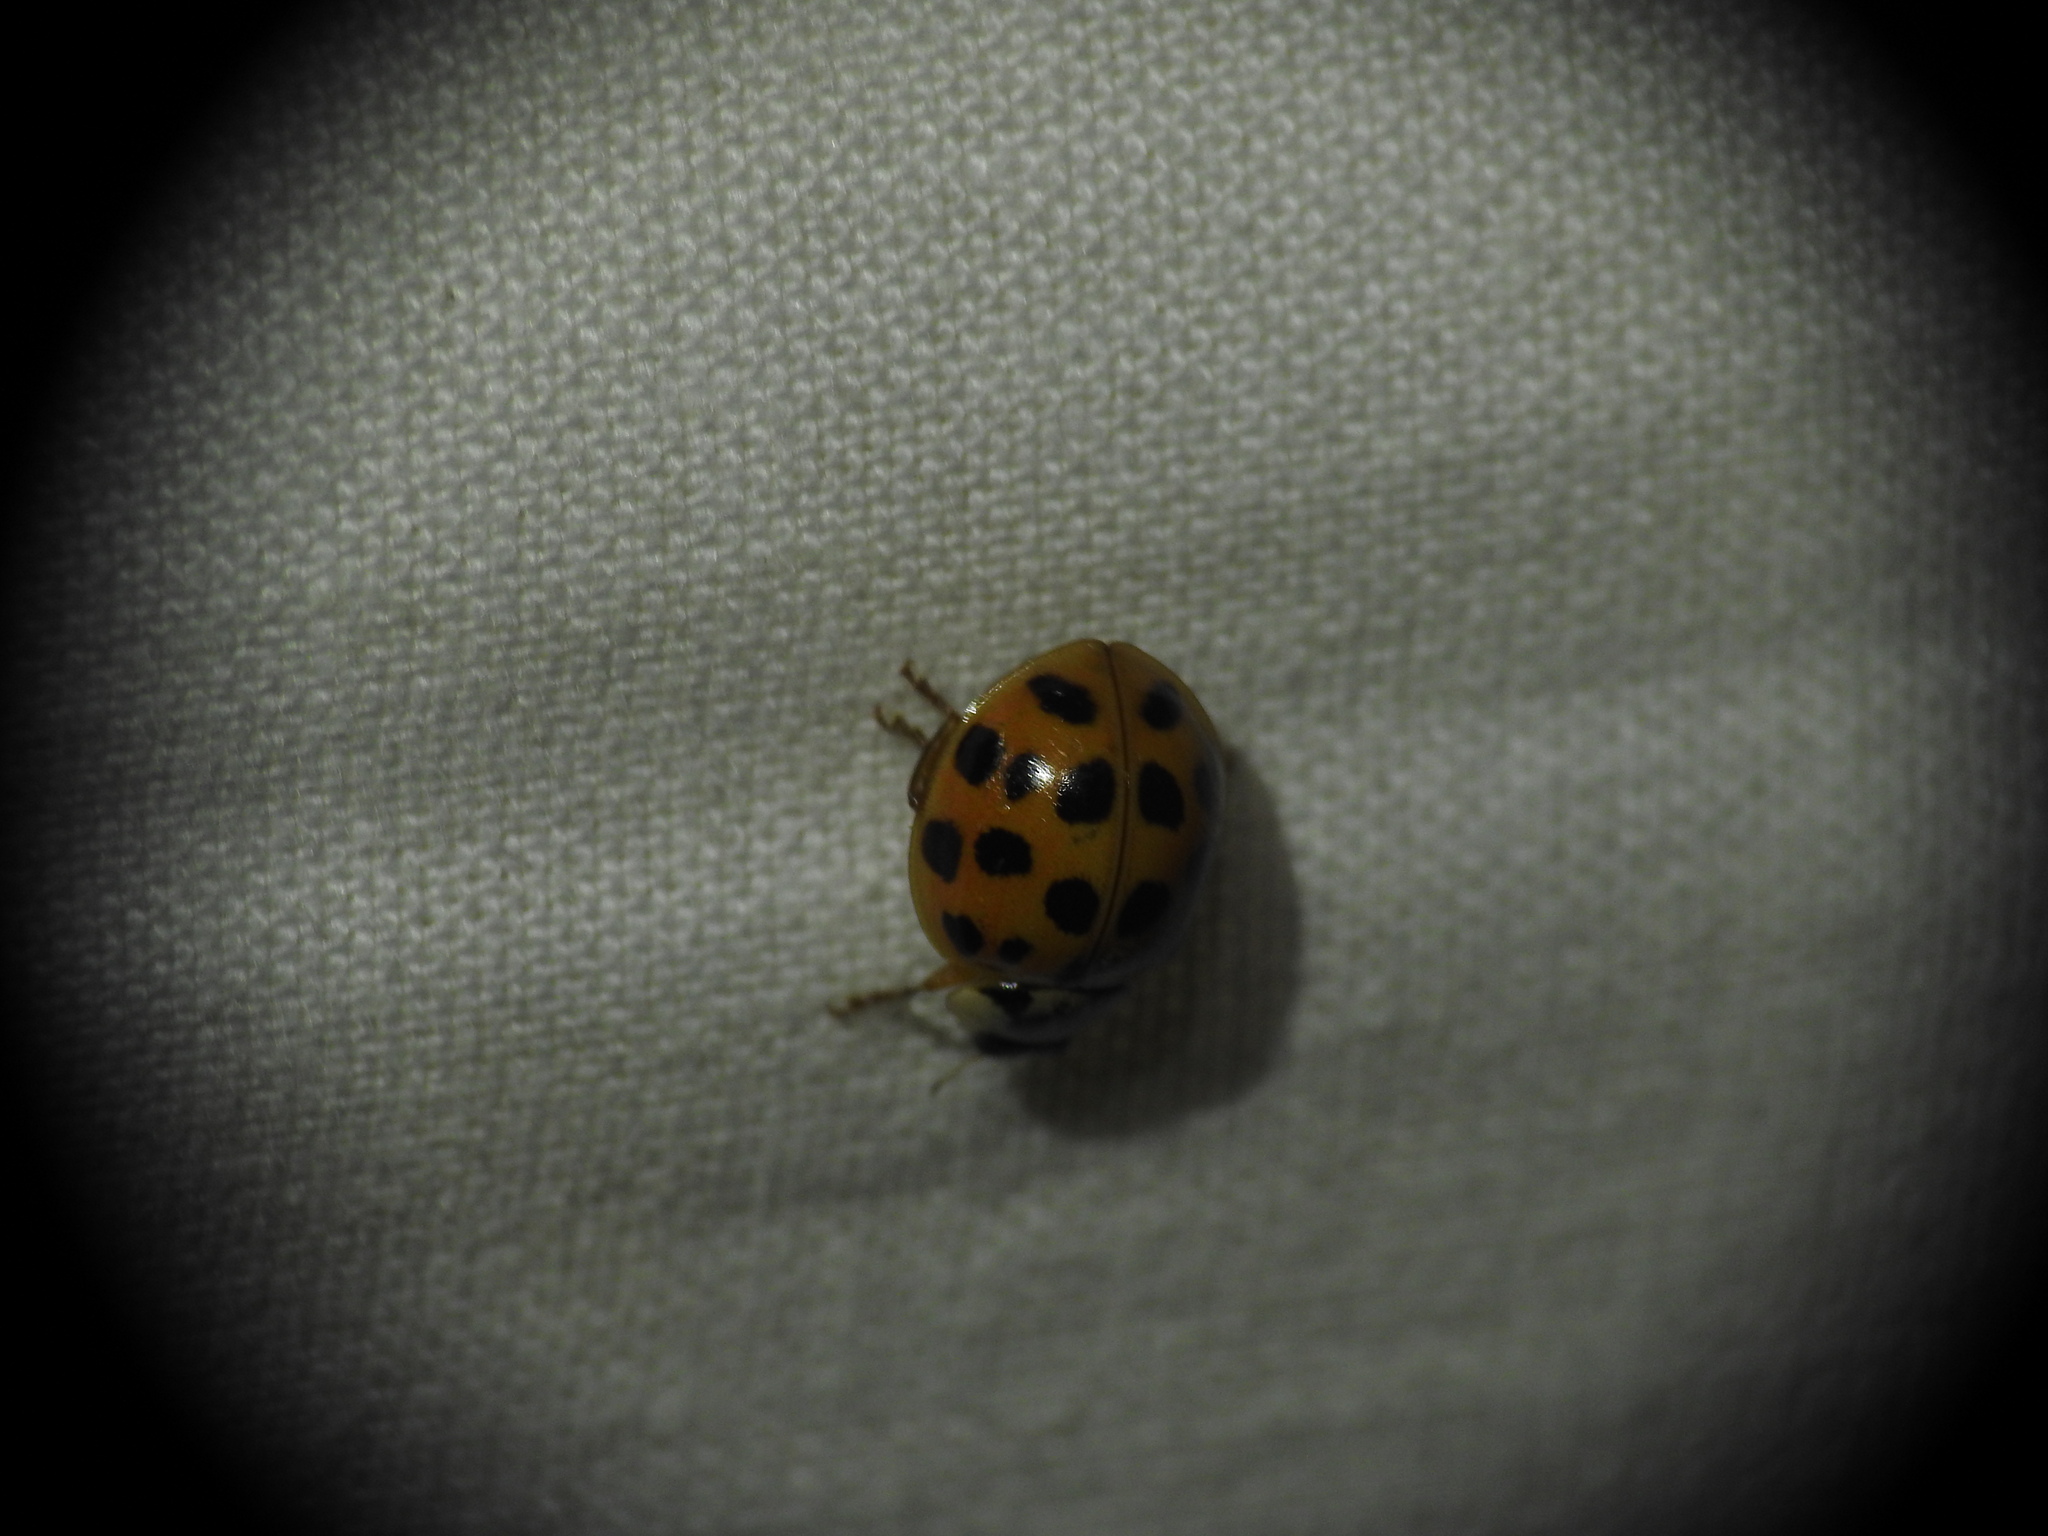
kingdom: Animalia
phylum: Arthropoda
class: Insecta
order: Coleoptera
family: Coccinellidae
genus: Harmonia
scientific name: Harmonia axyridis
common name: Harlequin ladybird
